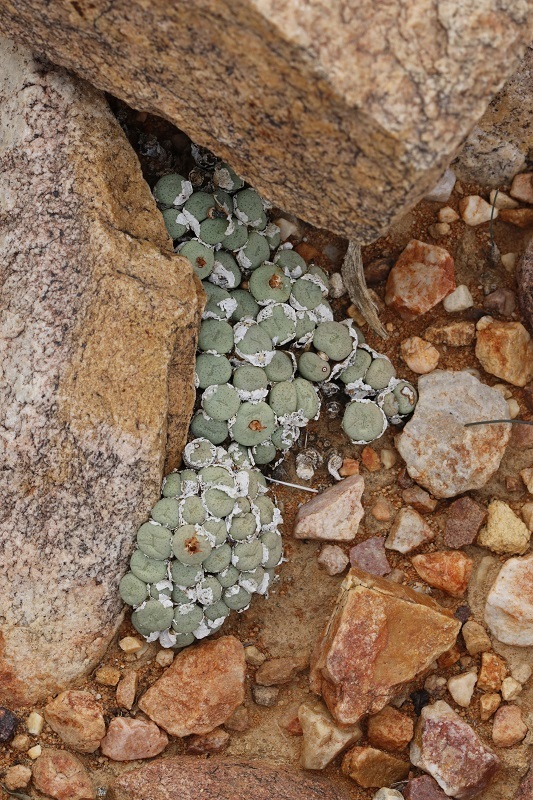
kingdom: Plantae
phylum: Tracheophyta
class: Magnoliopsida
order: Caryophyllales
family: Aizoaceae
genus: Conophytum
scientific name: Conophytum truncatum
